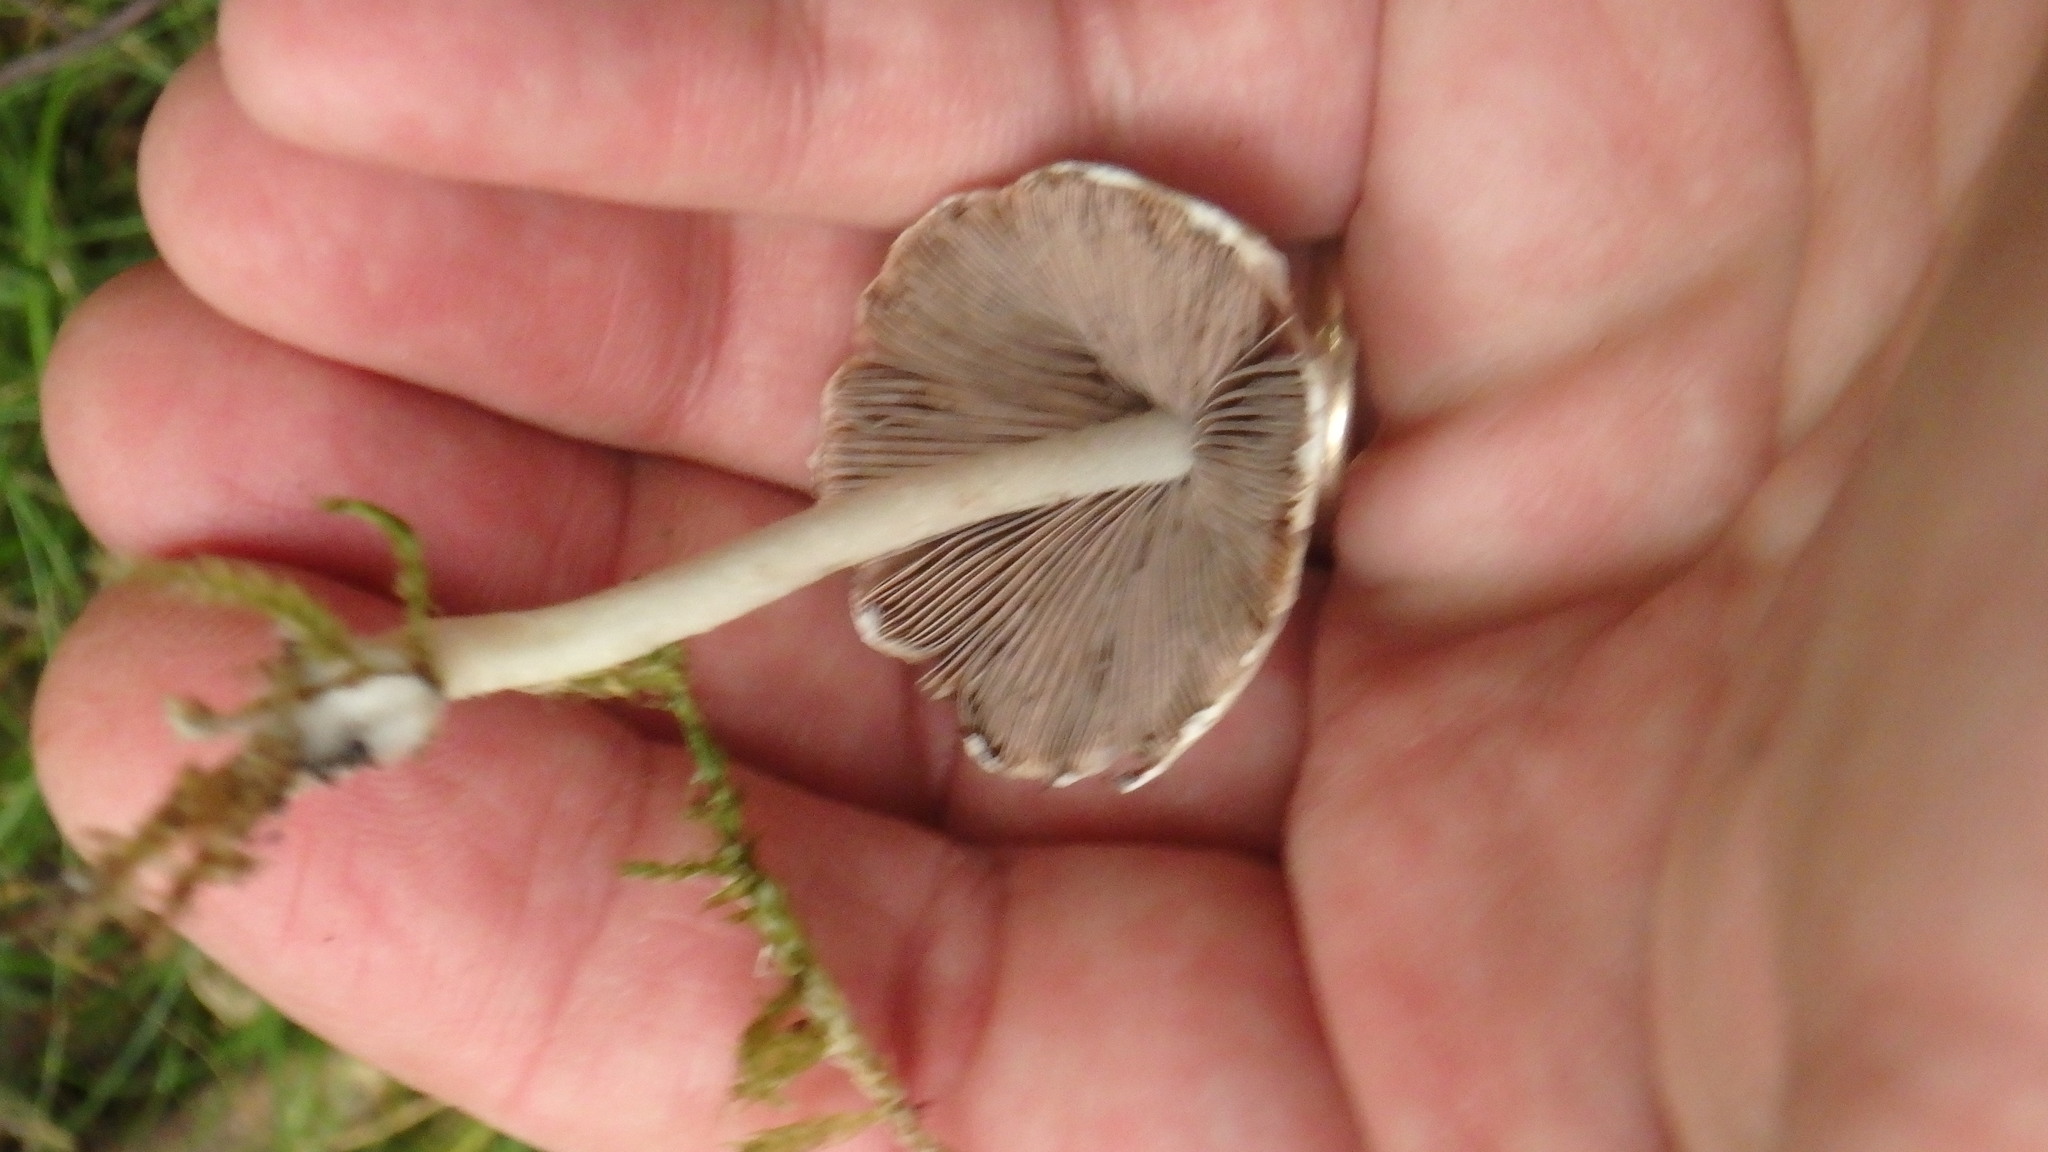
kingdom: Fungi
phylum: Basidiomycota
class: Agaricomycetes
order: Agaricales
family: Psathyrellaceae
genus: Candolleomyces
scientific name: Candolleomyces candolleanus
